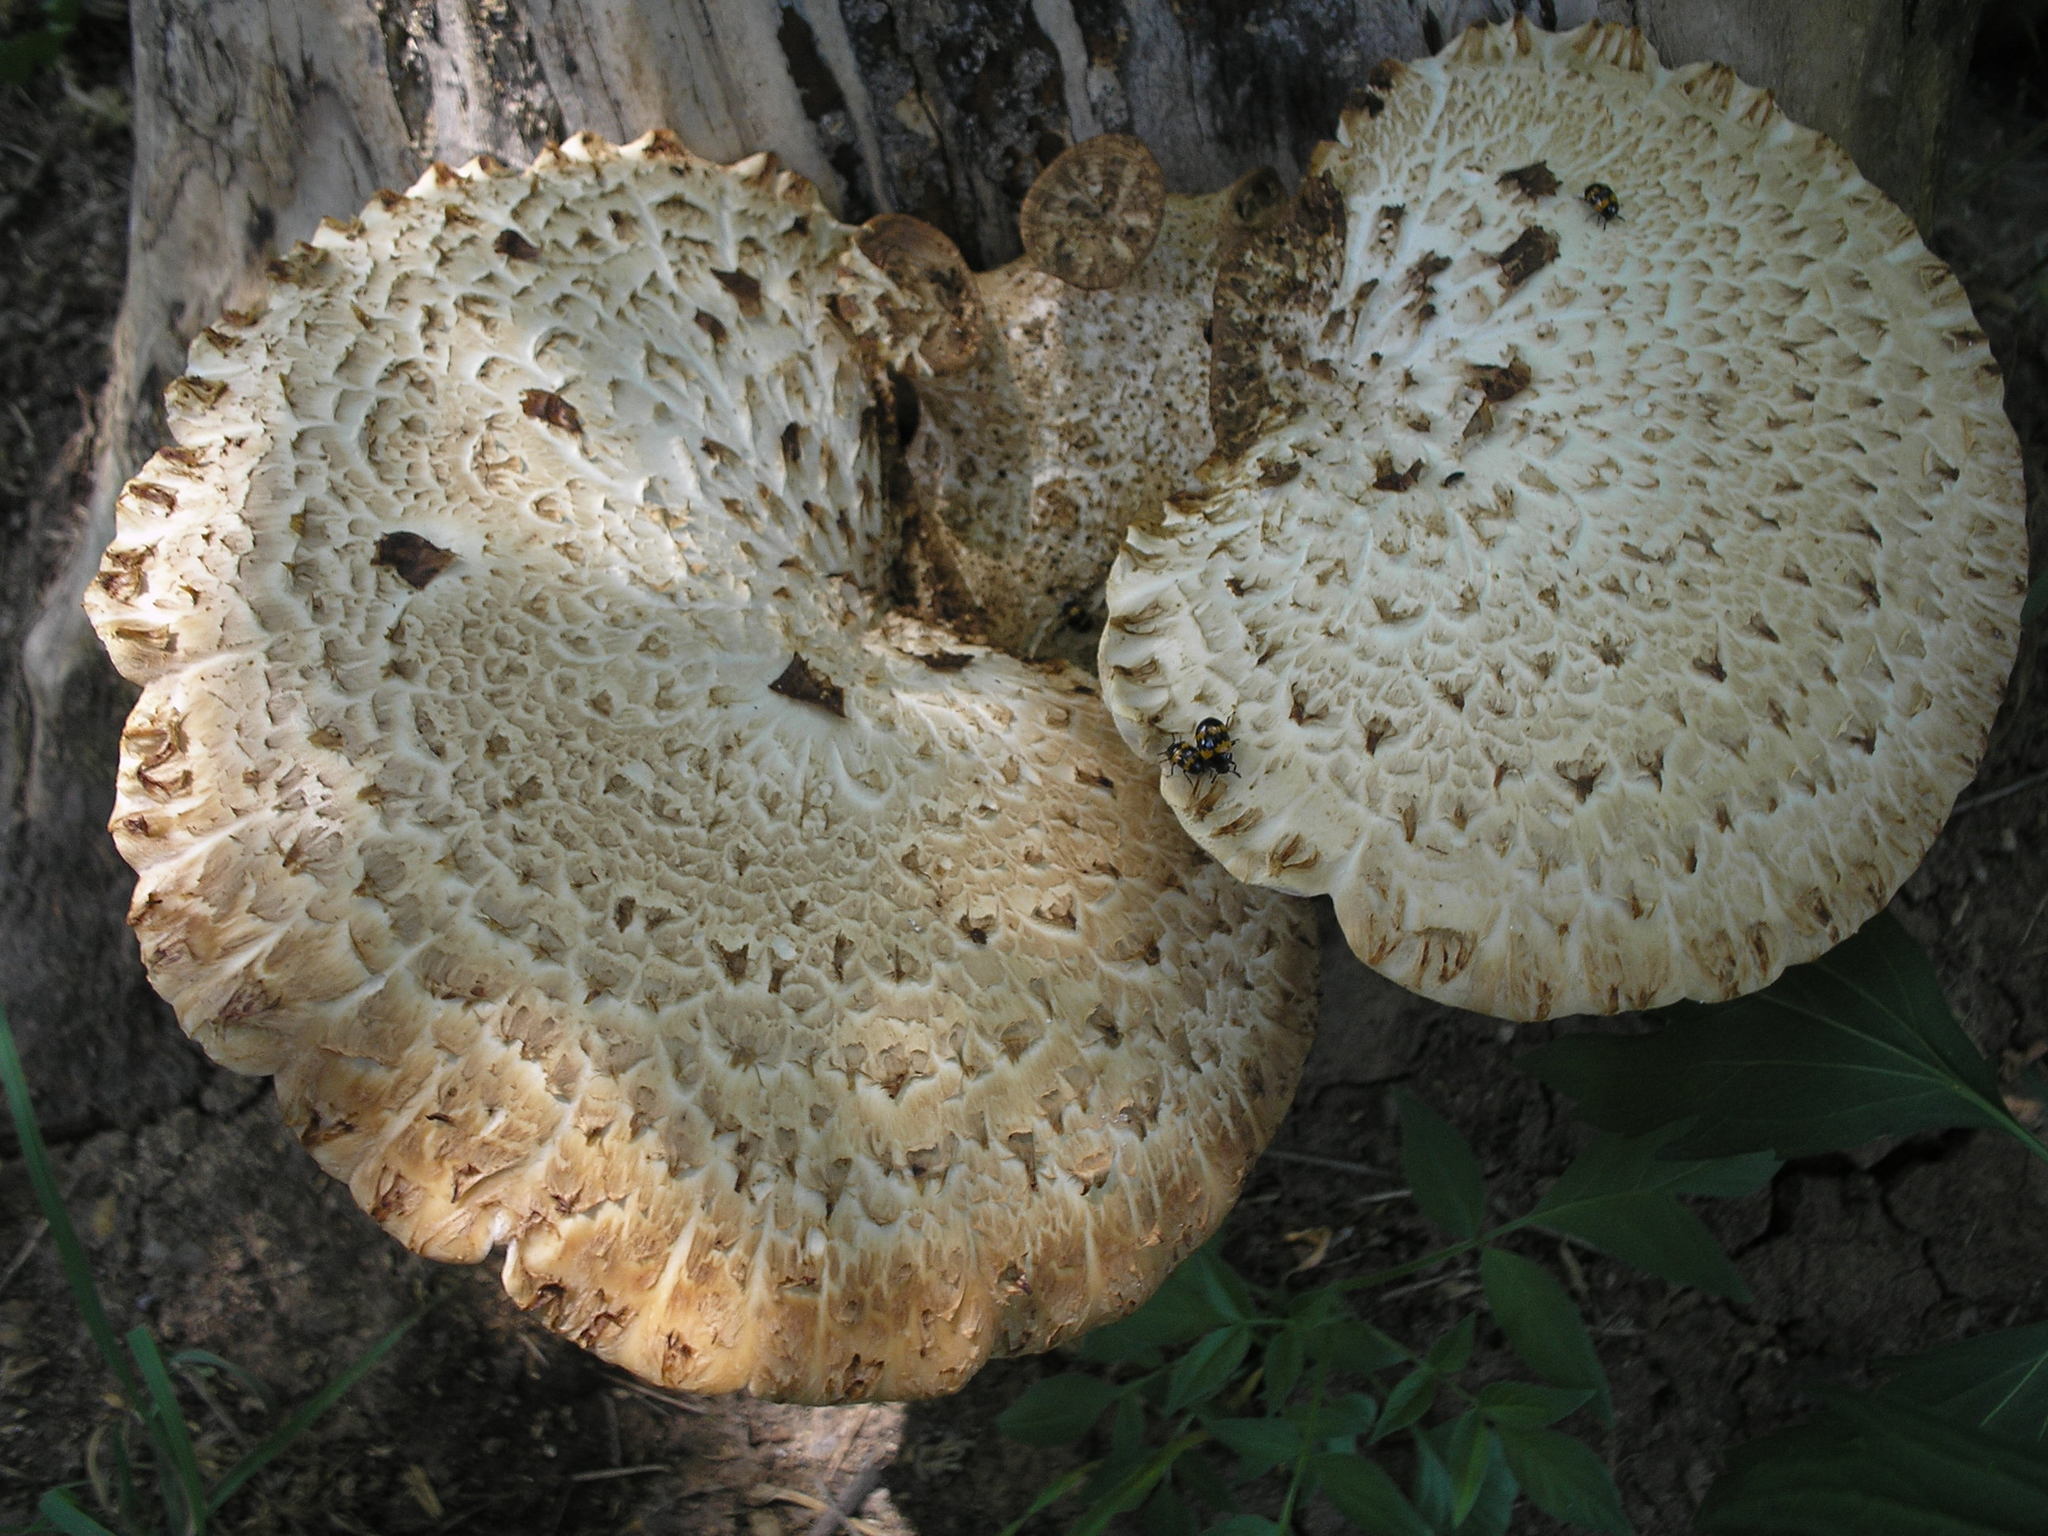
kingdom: Fungi
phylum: Basidiomycota
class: Agaricomycetes
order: Polyporales
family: Polyporaceae
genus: Cerioporus
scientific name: Cerioporus squamosus
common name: Dryad's saddle
